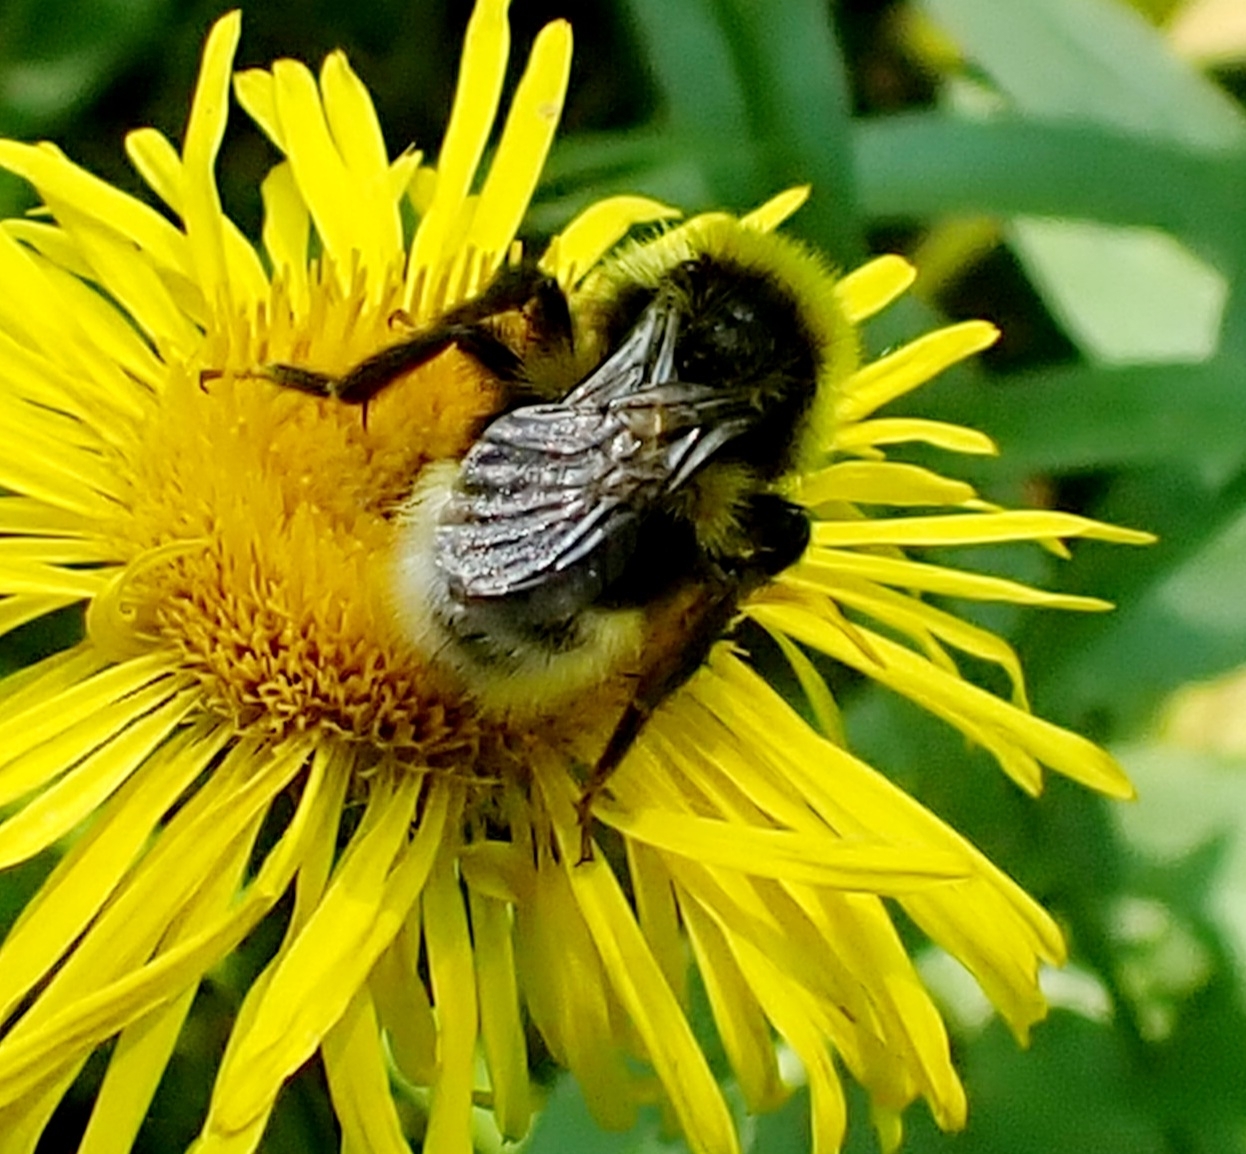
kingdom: Animalia
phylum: Arthropoda
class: Insecta
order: Hymenoptera
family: Apidae
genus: Bombus
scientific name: Bombus bohemicus
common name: Gypsy cuckoo bee
